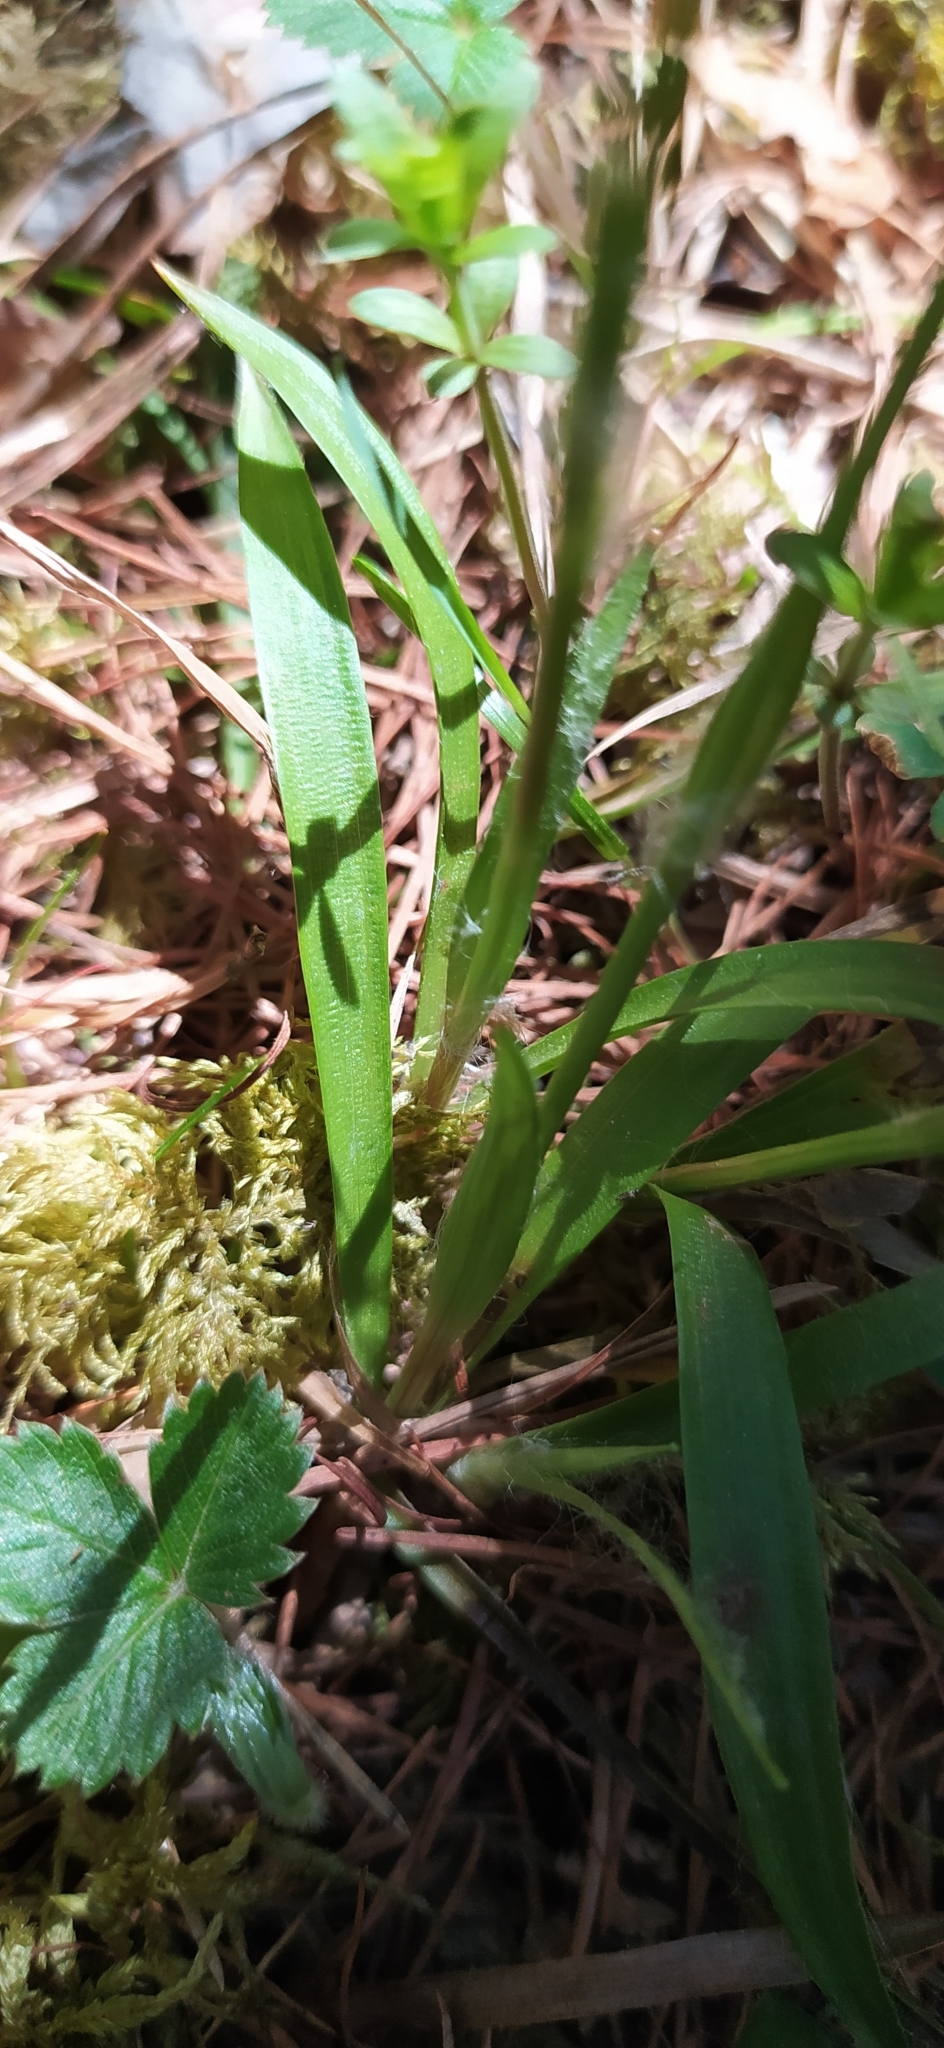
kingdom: Plantae
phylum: Tracheophyta
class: Liliopsida
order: Poales
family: Juncaceae
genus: Luzula
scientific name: Luzula pilosa
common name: Hairy wood-rush
